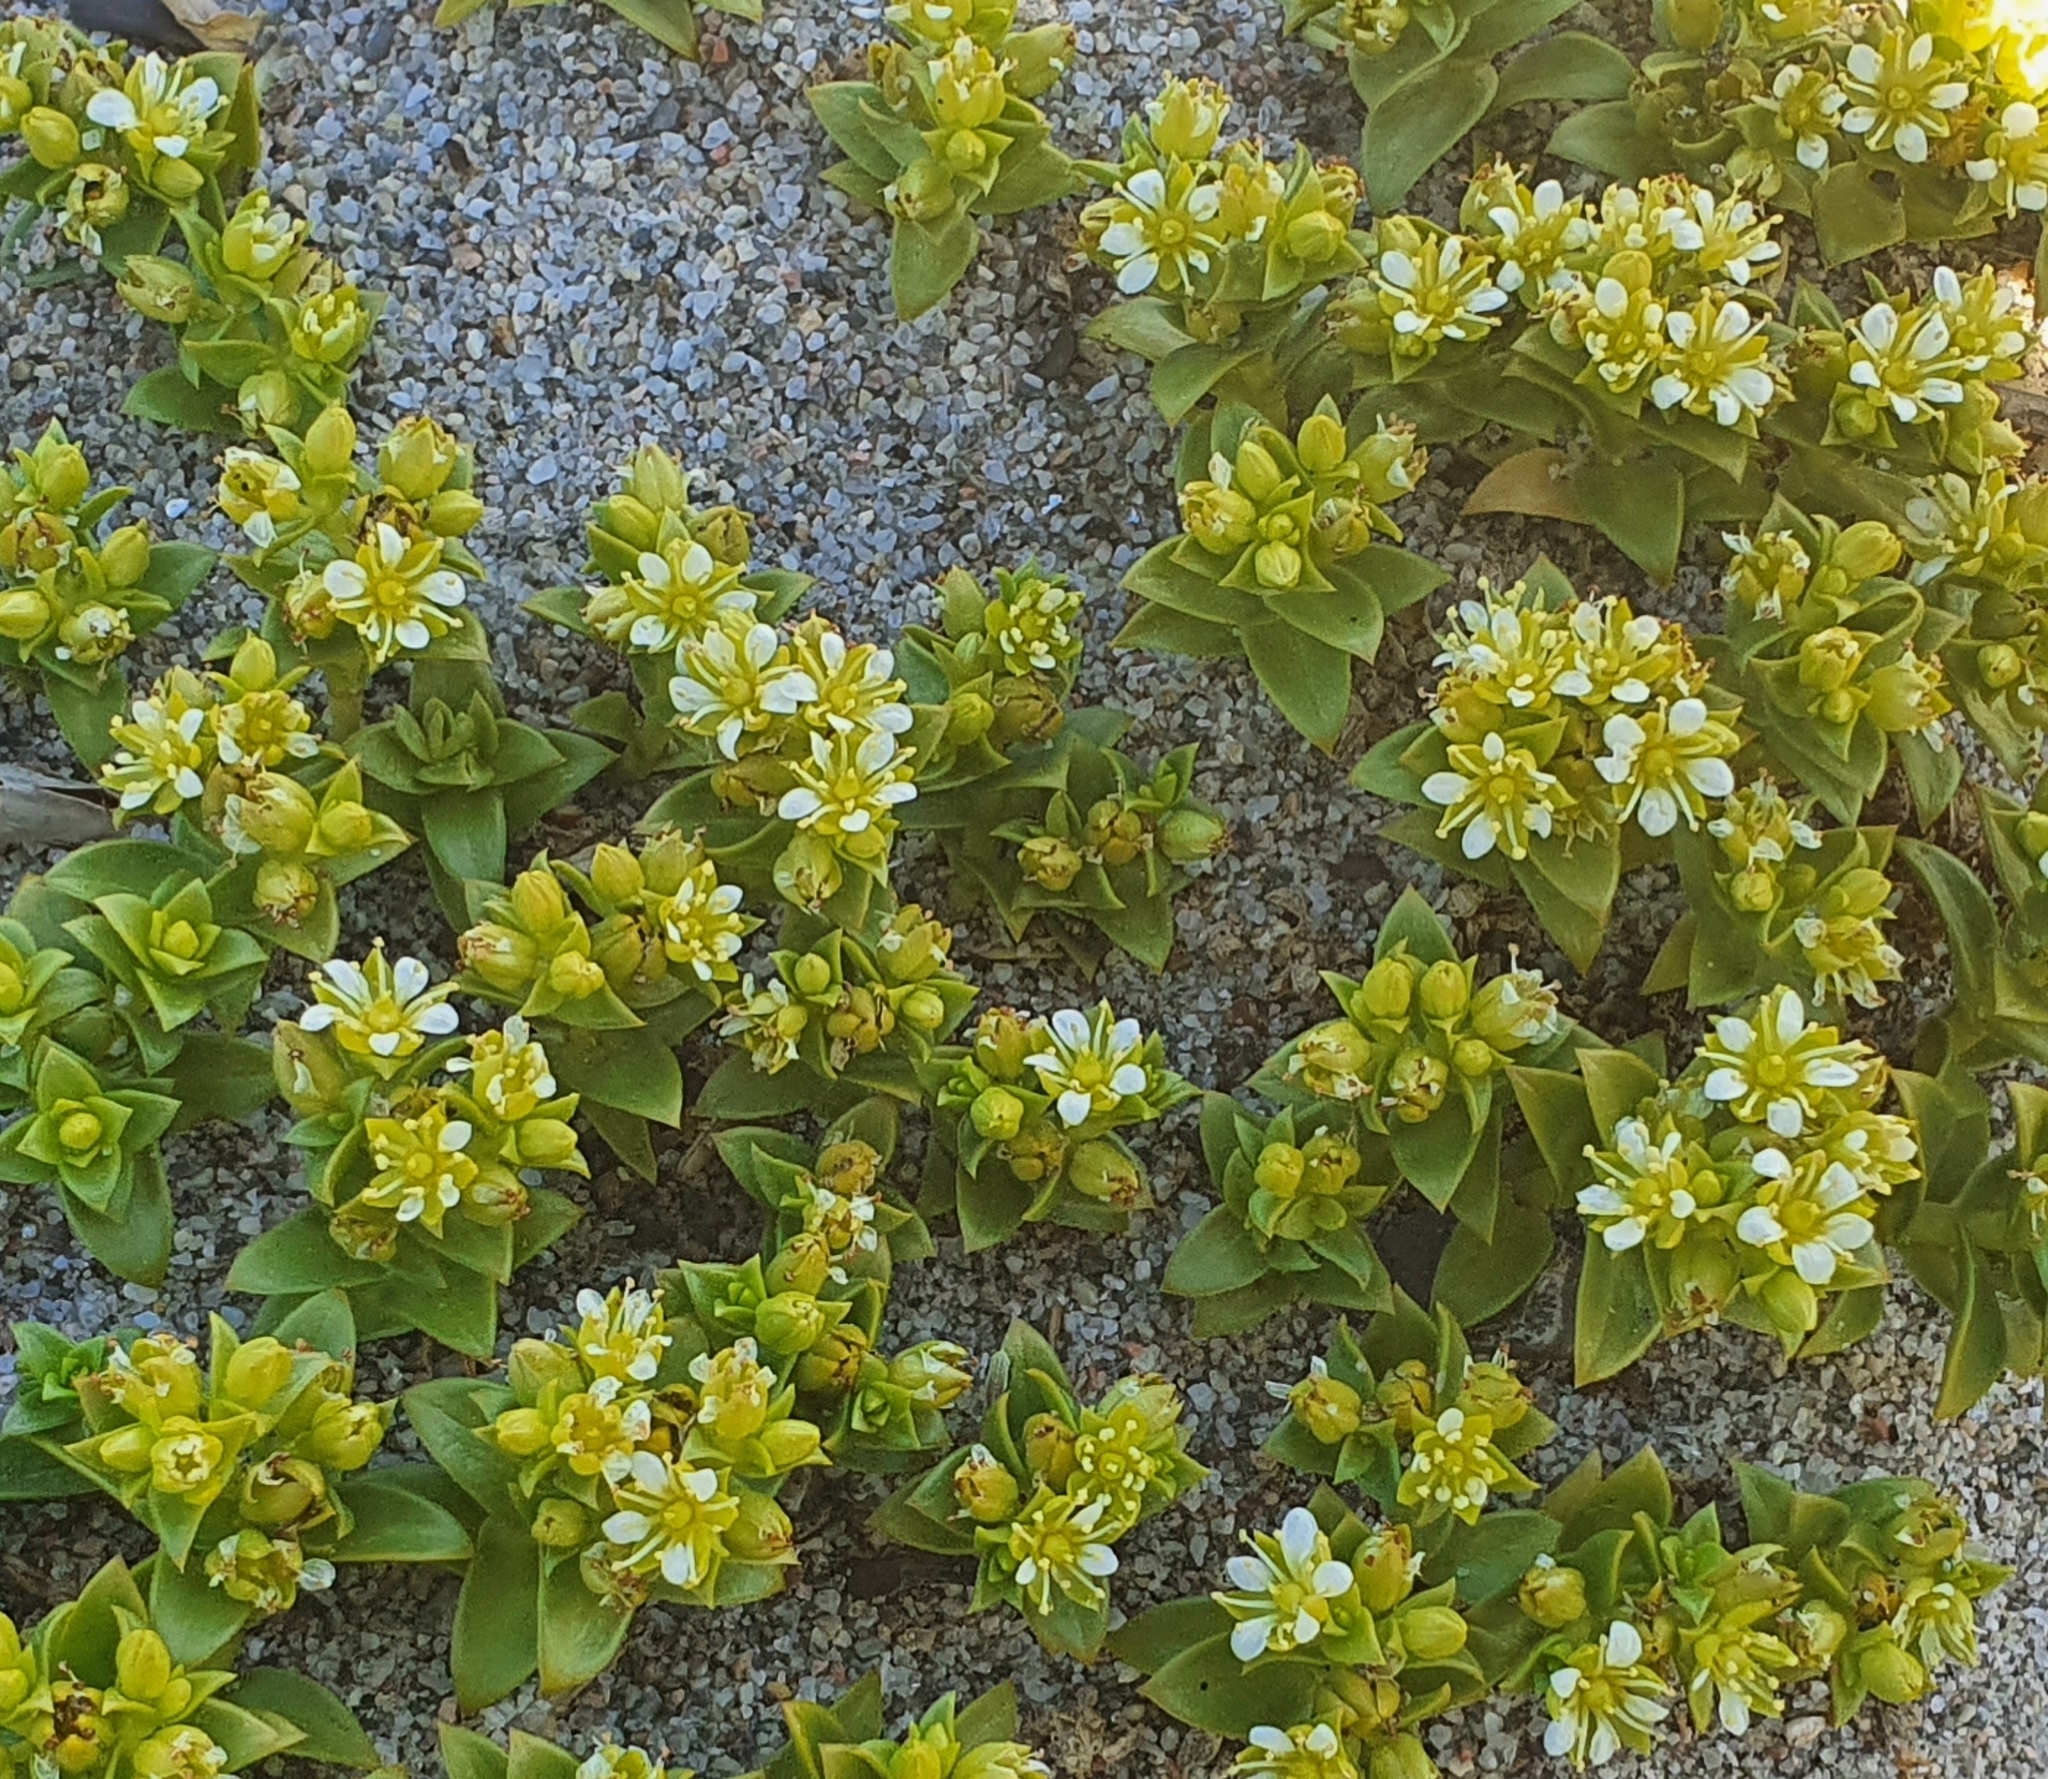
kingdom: Plantae
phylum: Tracheophyta
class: Magnoliopsida
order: Caryophyllales
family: Caryophyllaceae
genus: Honckenya
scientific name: Honckenya peploides
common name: Sea sandwort
